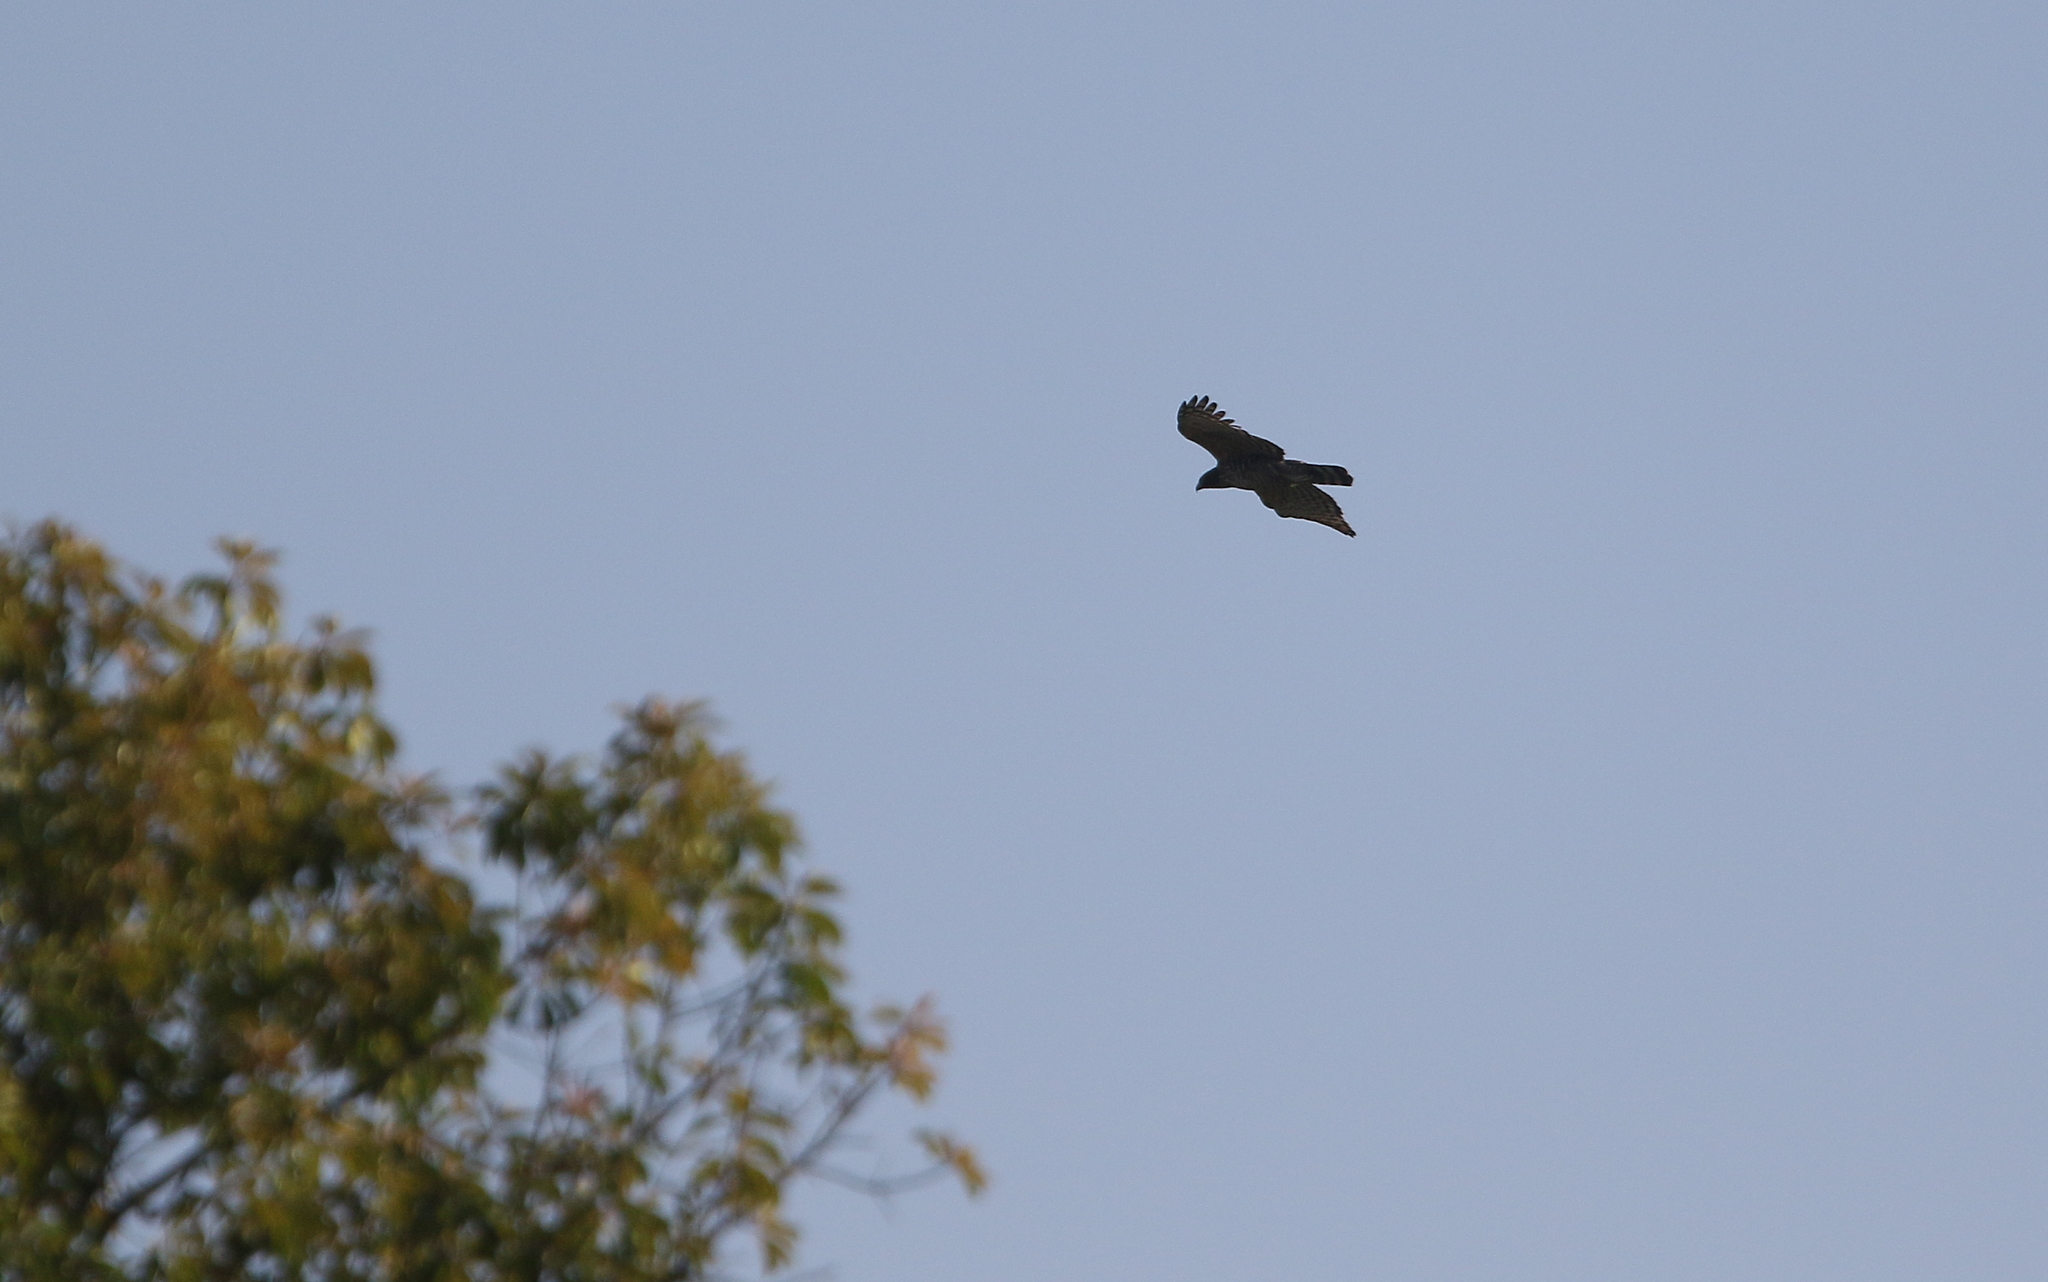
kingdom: Animalia
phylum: Chordata
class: Aves
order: Accipitriformes
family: Accipitridae
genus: Nisaetus
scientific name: Nisaetus nipalensis
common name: Mountain hawk-eagle
